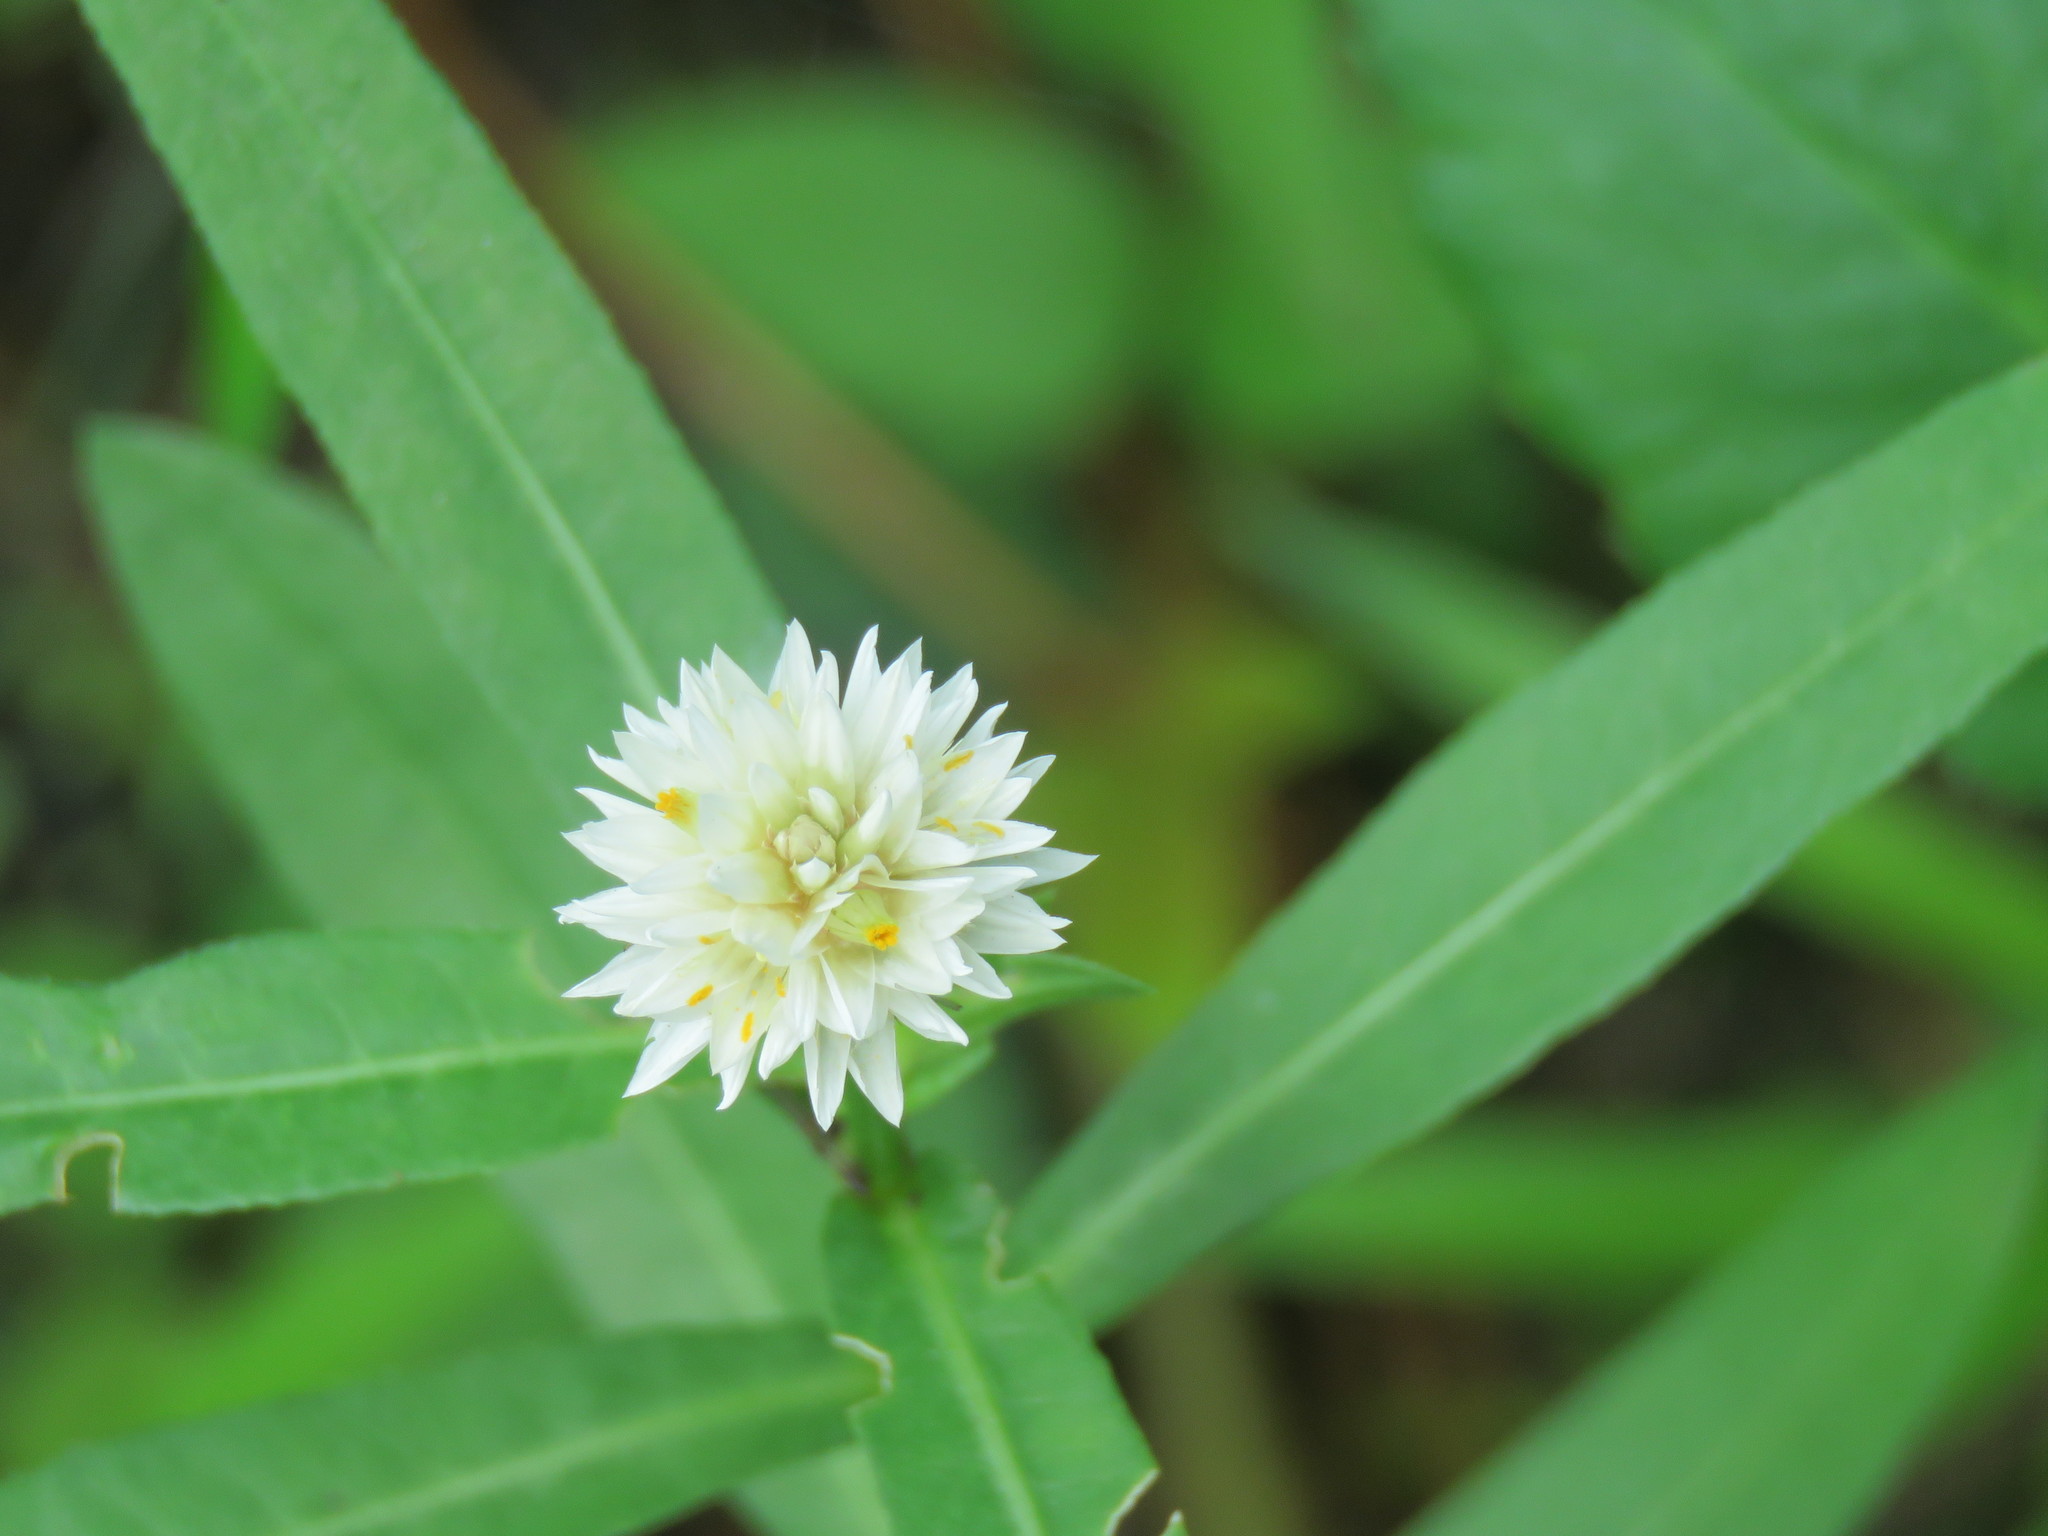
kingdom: Plantae
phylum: Tracheophyta
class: Magnoliopsida
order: Caryophyllales
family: Amaranthaceae
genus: Alternanthera
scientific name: Alternanthera philoxeroides
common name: Alligatorweed
